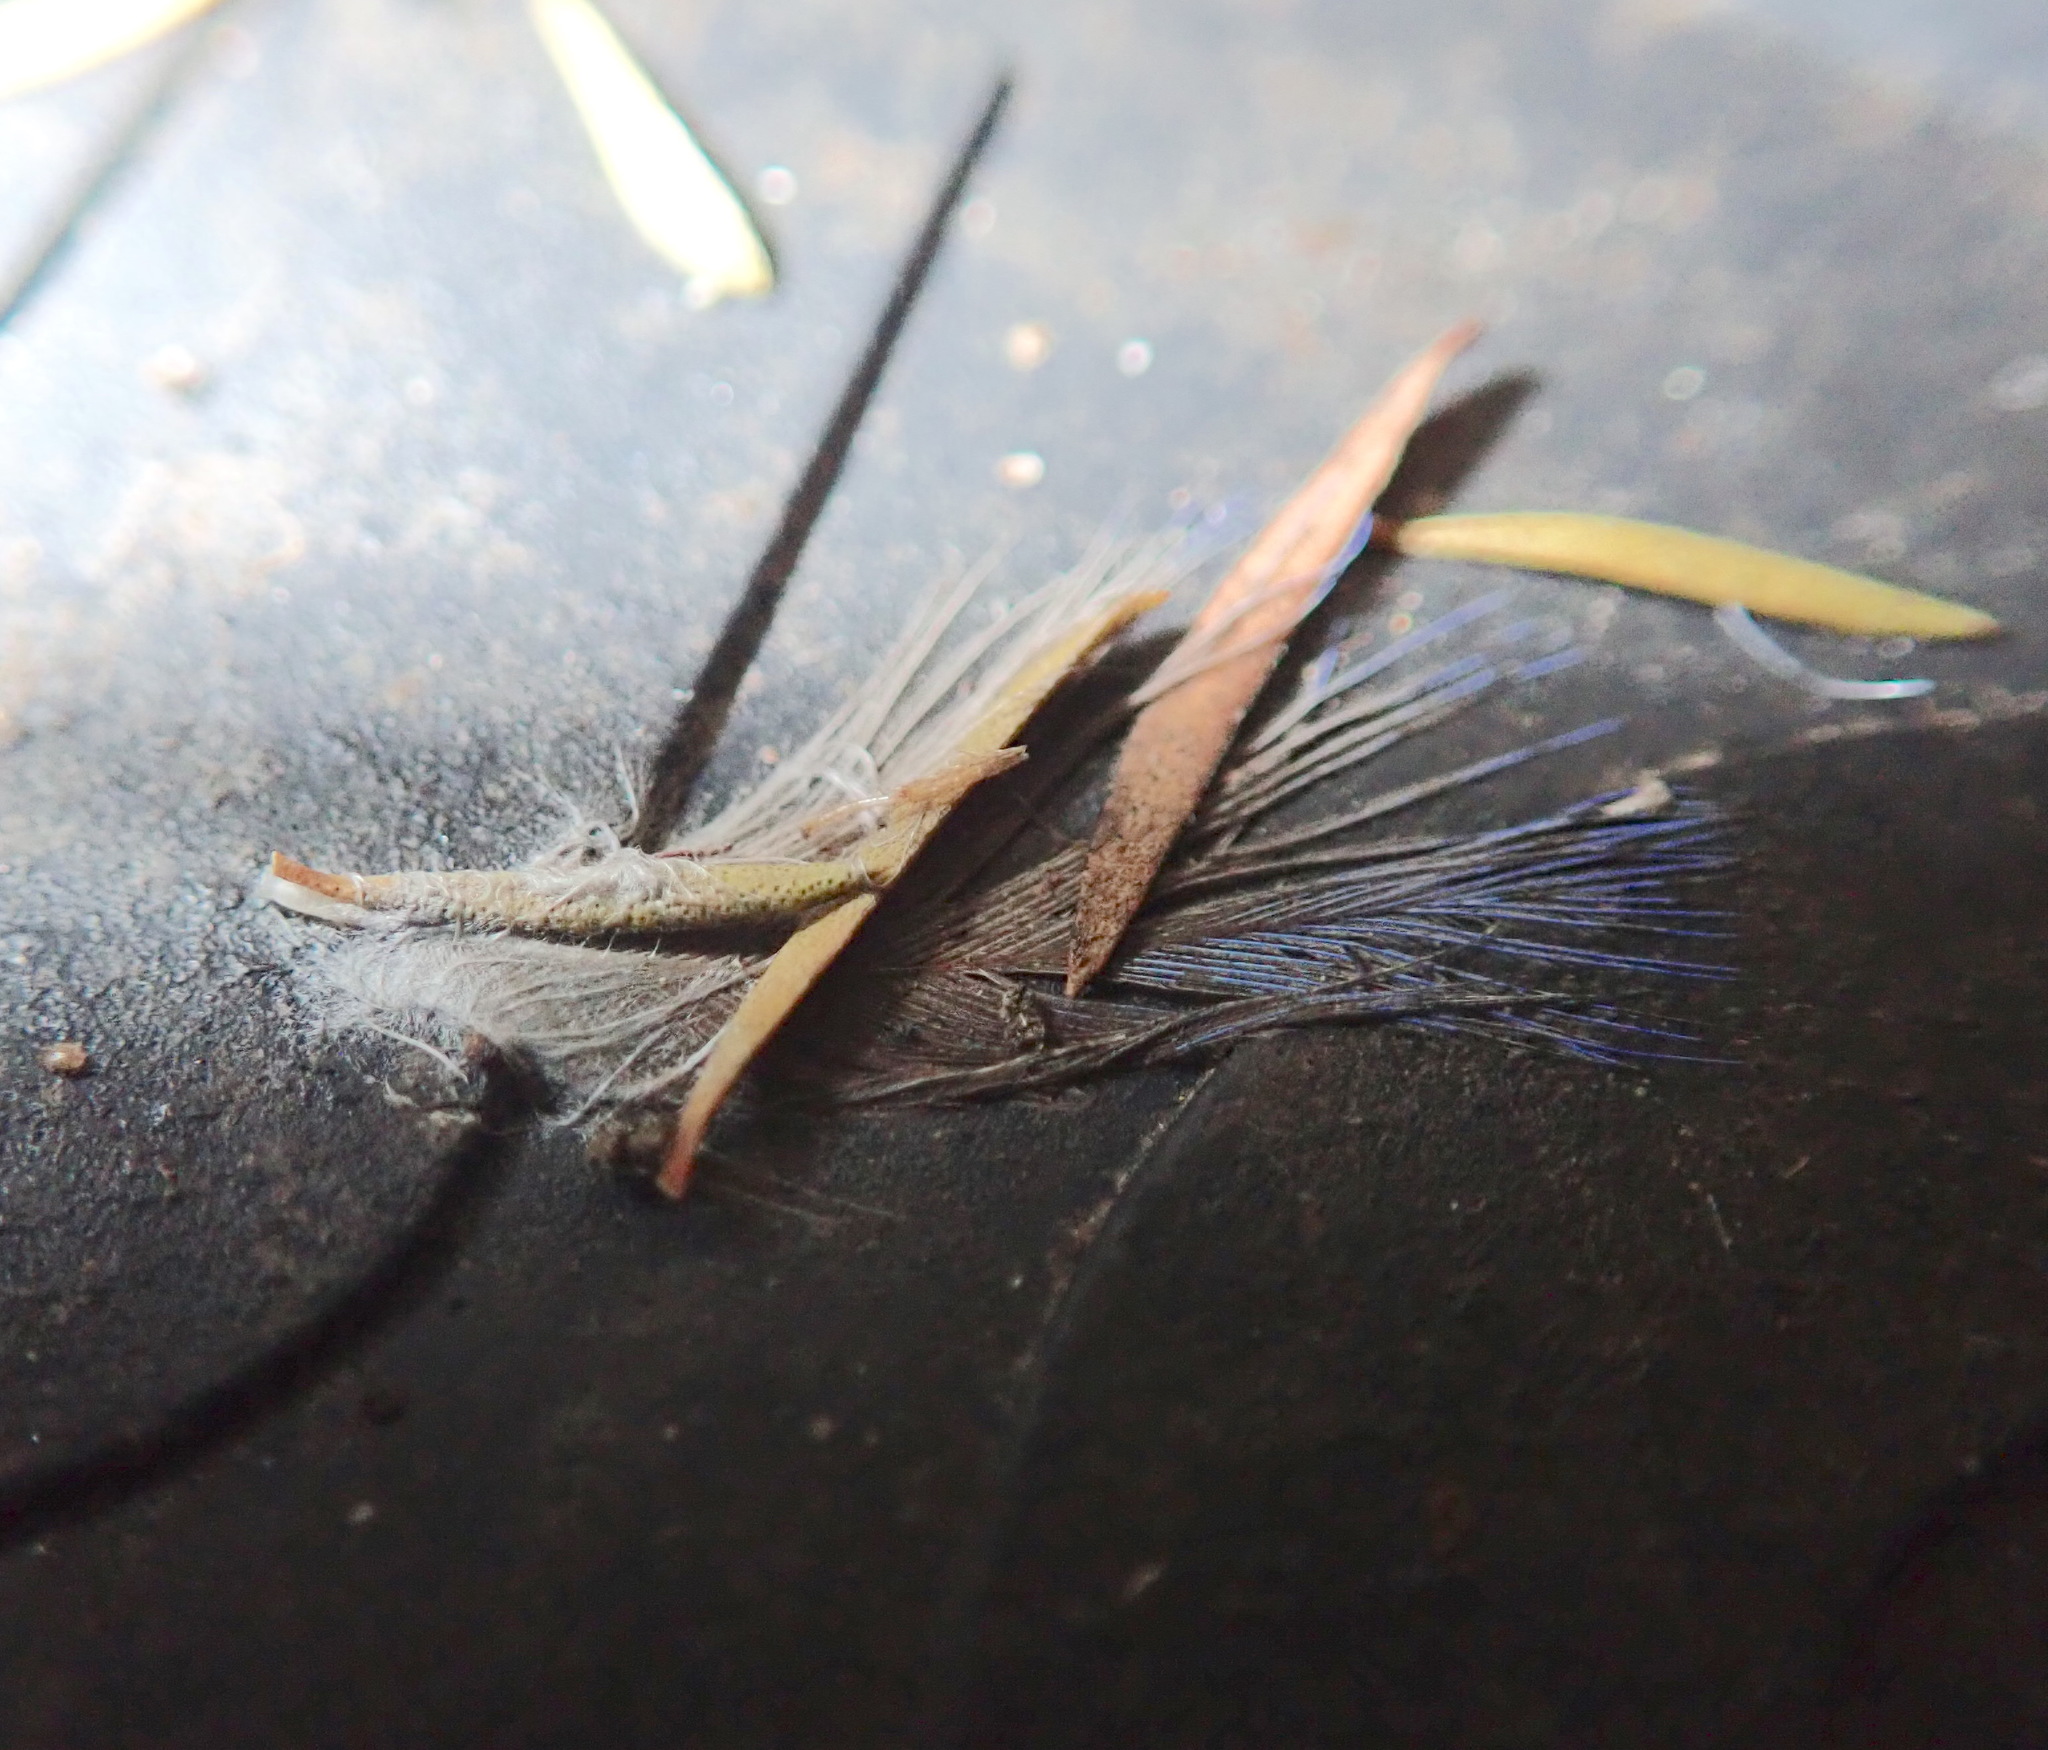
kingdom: Animalia
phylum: Chordata
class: Aves
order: Psittaciformes
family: Psittacidae
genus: Platycercus
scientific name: Platycercus eximius
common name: Eastern rosella
